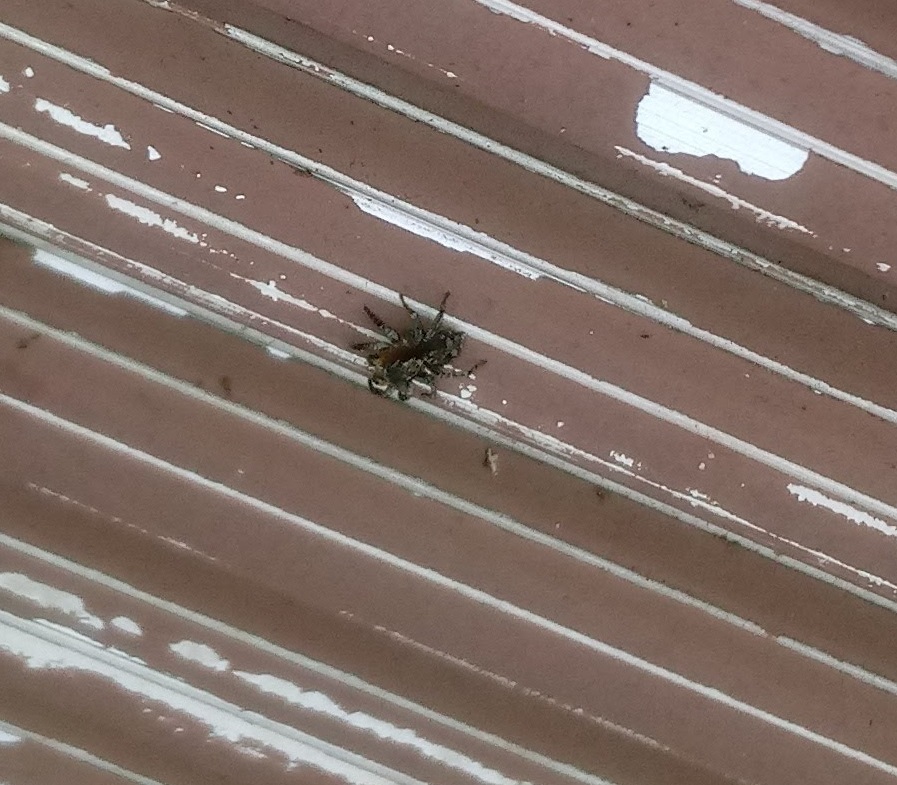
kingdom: Animalia
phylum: Arthropoda
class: Arachnida
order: Araneae
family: Salticidae
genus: Naphrys
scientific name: Naphrys pulex
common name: Flea jumping spider
